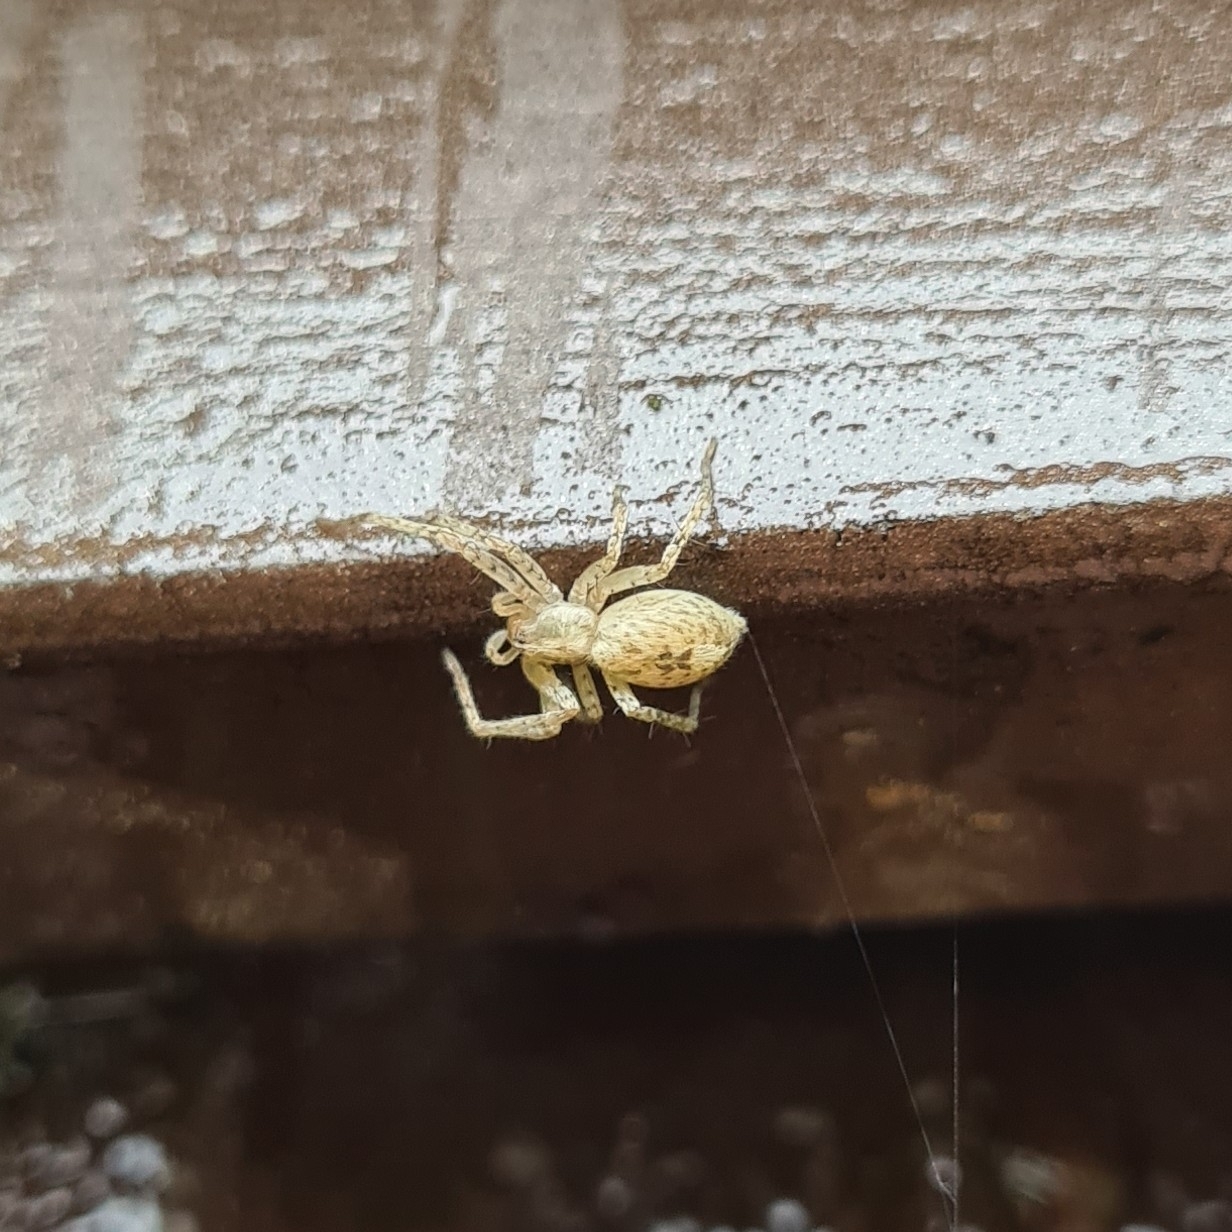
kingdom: Animalia
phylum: Arthropoda
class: Arachnida
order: Araneae
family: Anyphaenidae
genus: Anyphaena
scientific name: Anyphaena accentuata
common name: Buzzing spider
